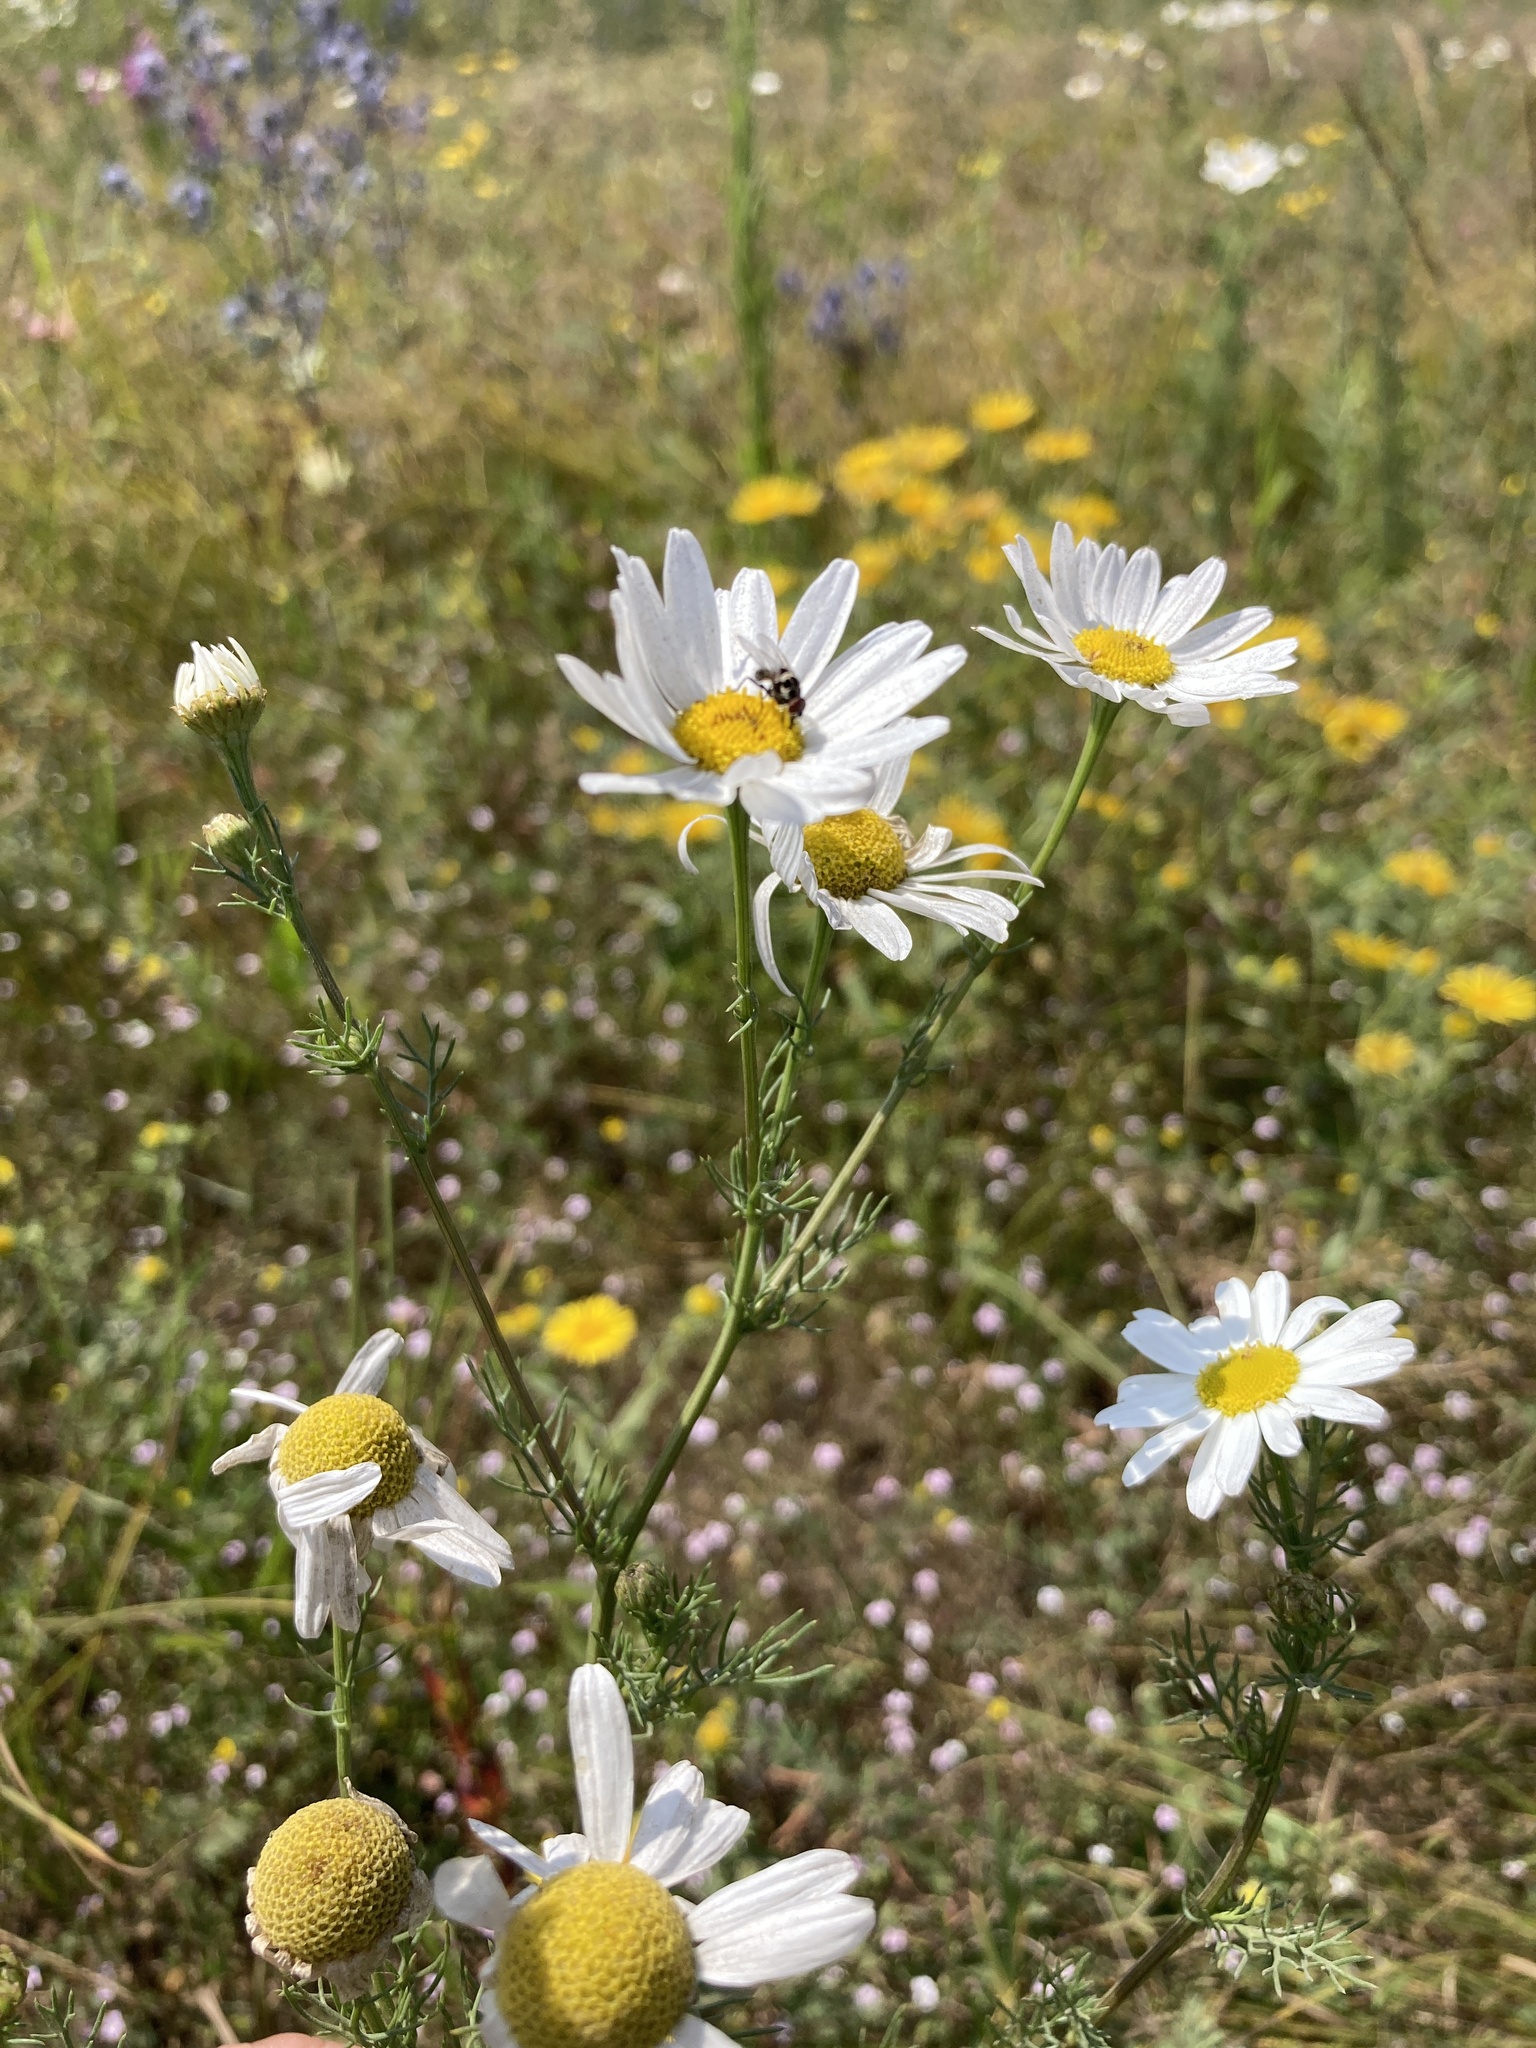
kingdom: Plantae
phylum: Tracheophyta
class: Magnoliopsida
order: Asterales
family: Asteraceae
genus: Tripleurospermum
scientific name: Tripleurospermum inodorum
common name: Scentless mayweed
